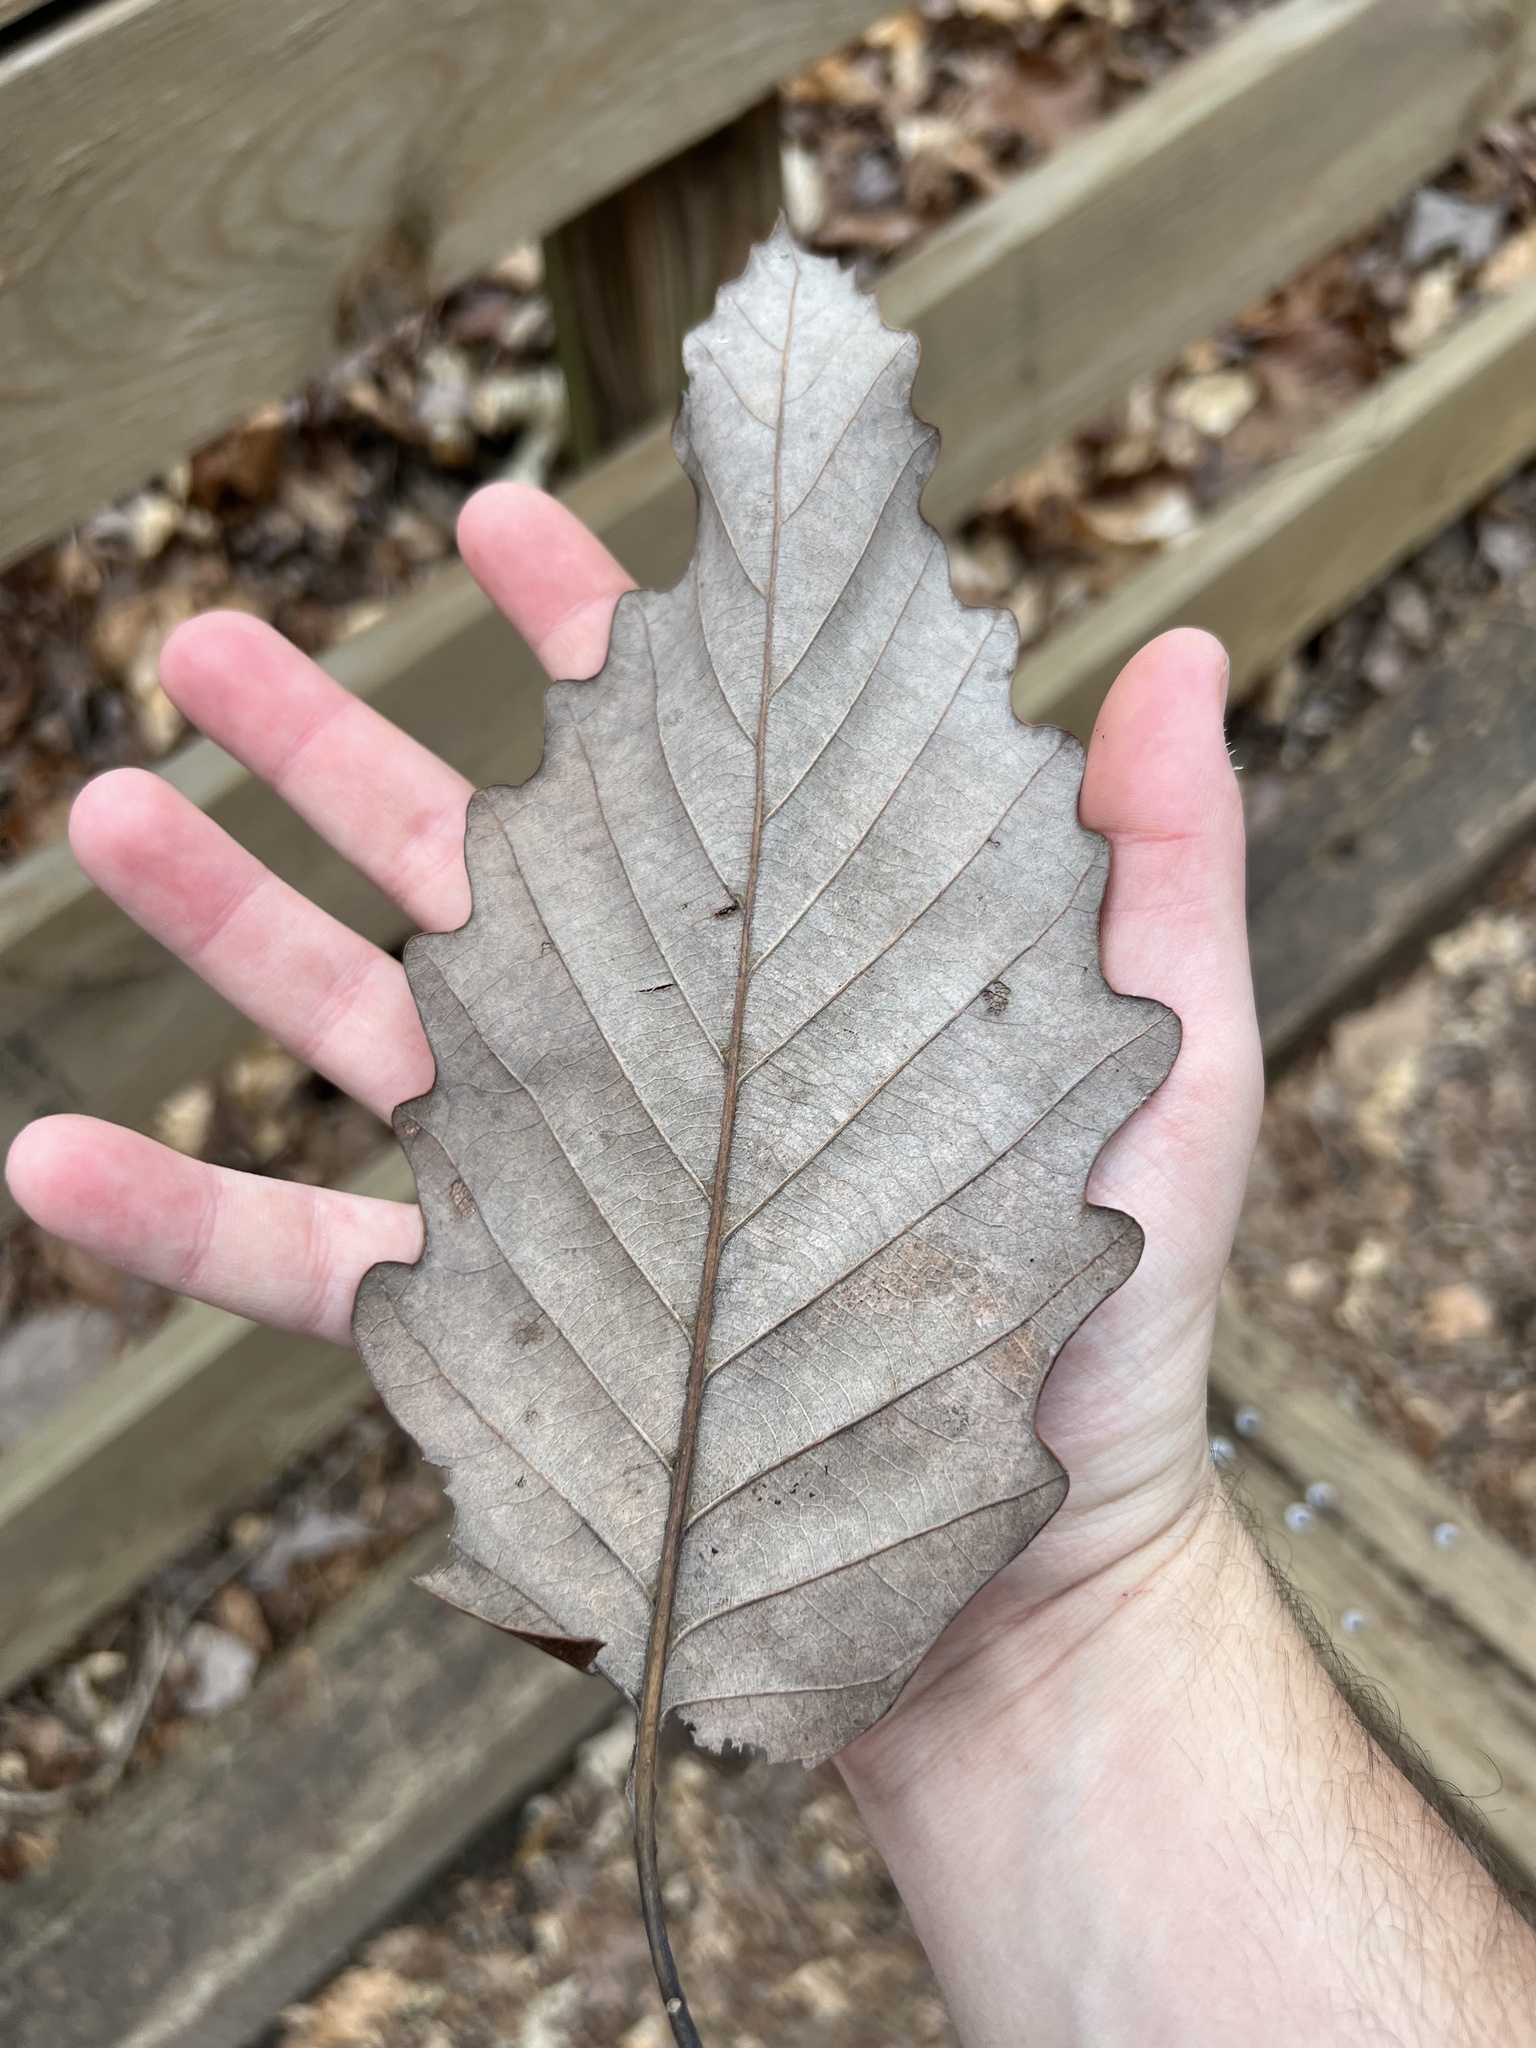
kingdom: Plantae
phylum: Tracheophyta
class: Magnoliopsida
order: Fagales
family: Fagaceae
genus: Quercus
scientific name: Quercus muehlenbergii
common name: Chinkapin oak
